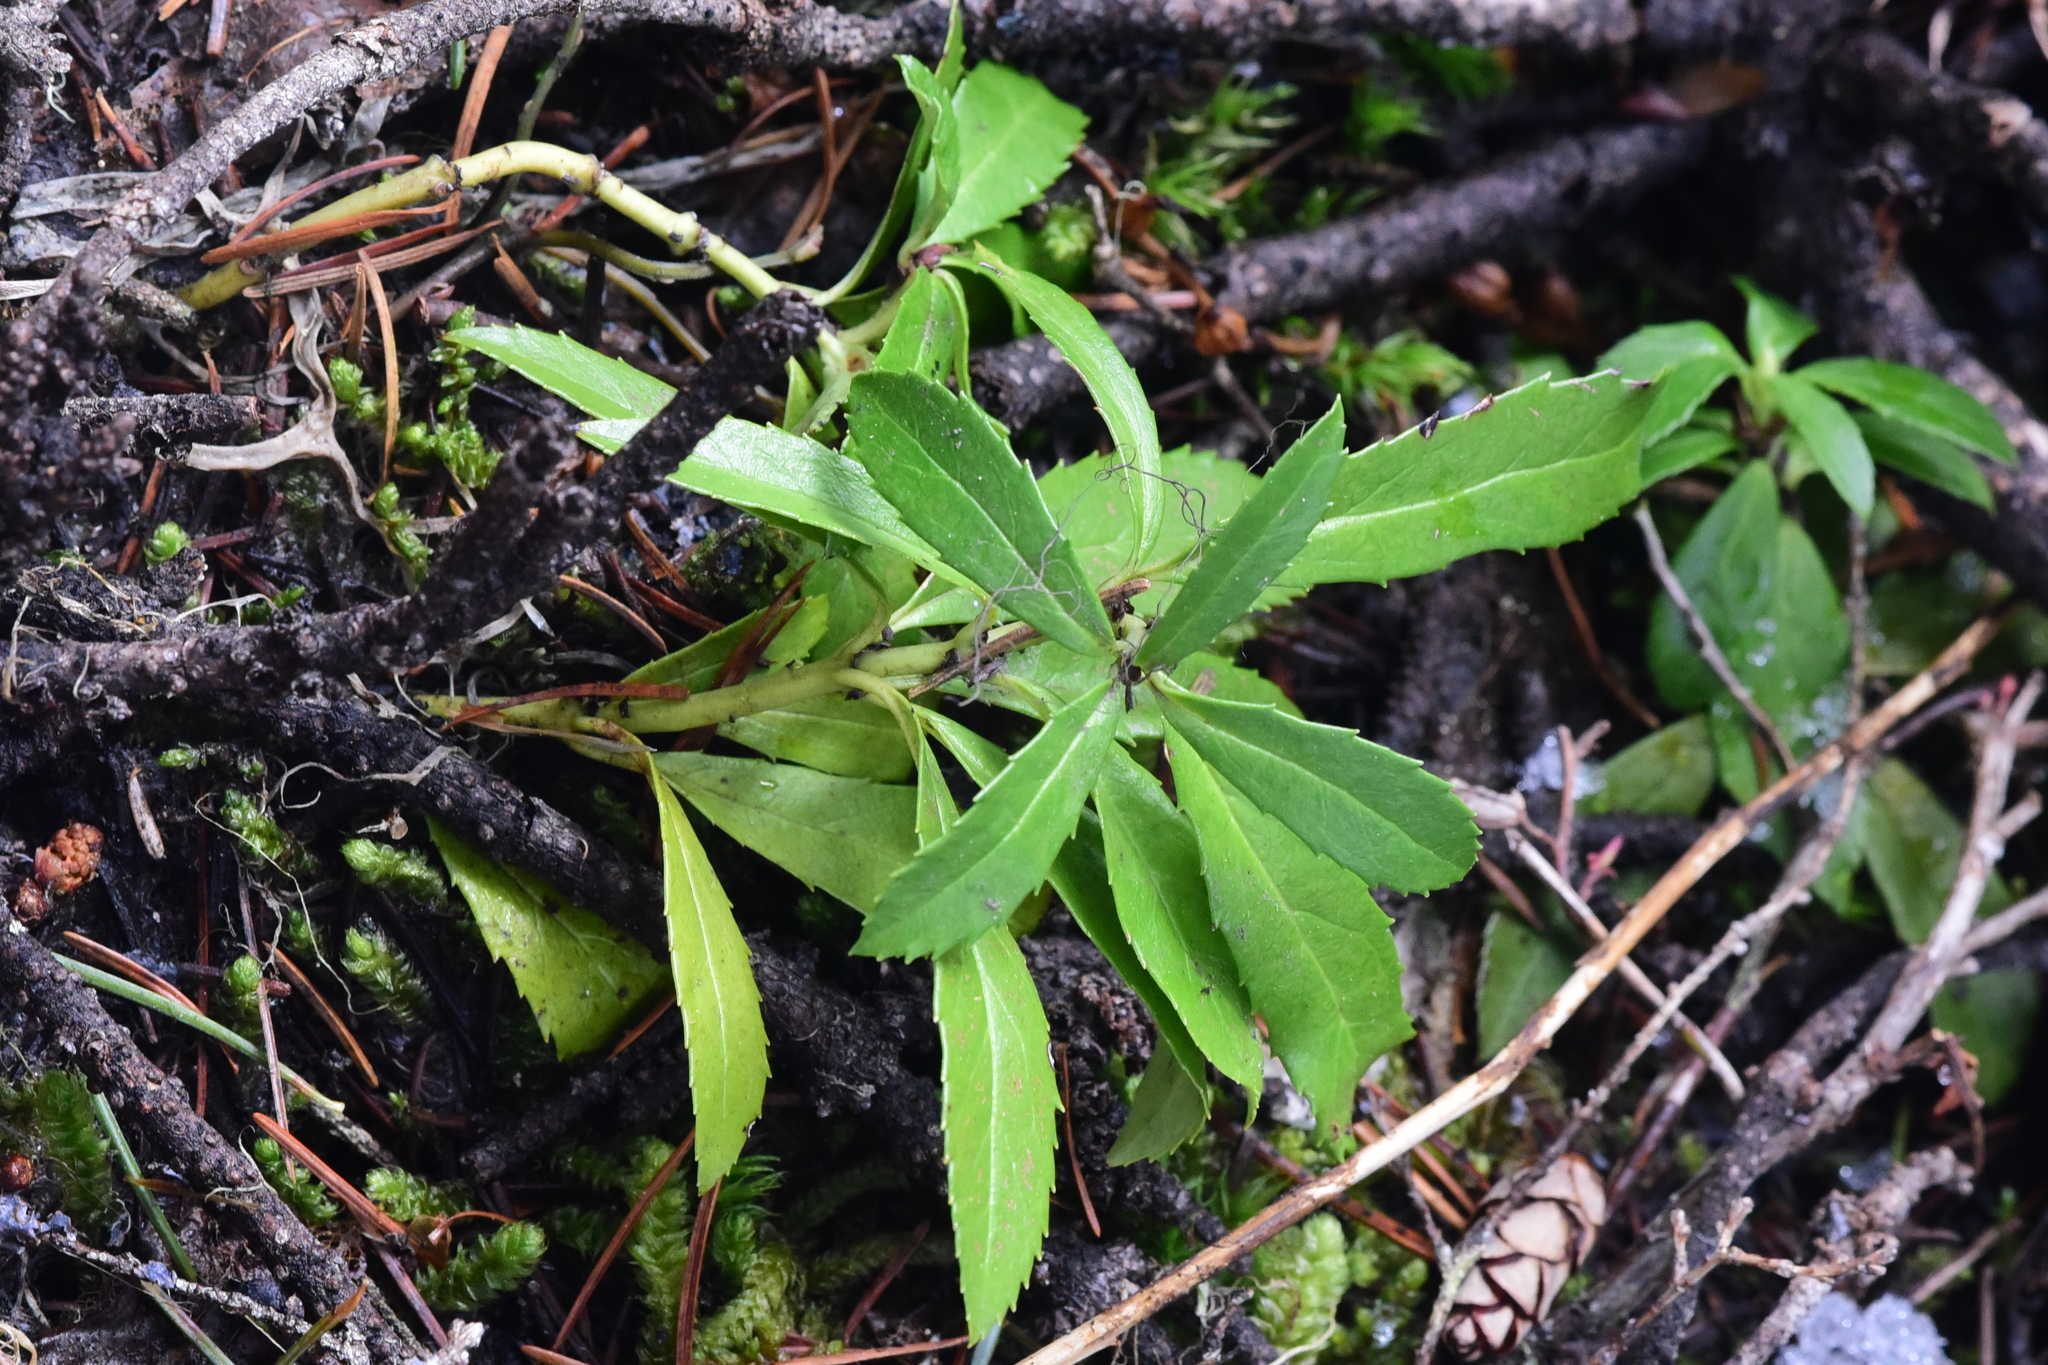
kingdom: Plantae
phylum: Tracheophyta
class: Magnoliopsida
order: Ericales
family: Ericaceae
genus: Chimaphila
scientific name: Chimaphila umbellata
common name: Pipsissewa
